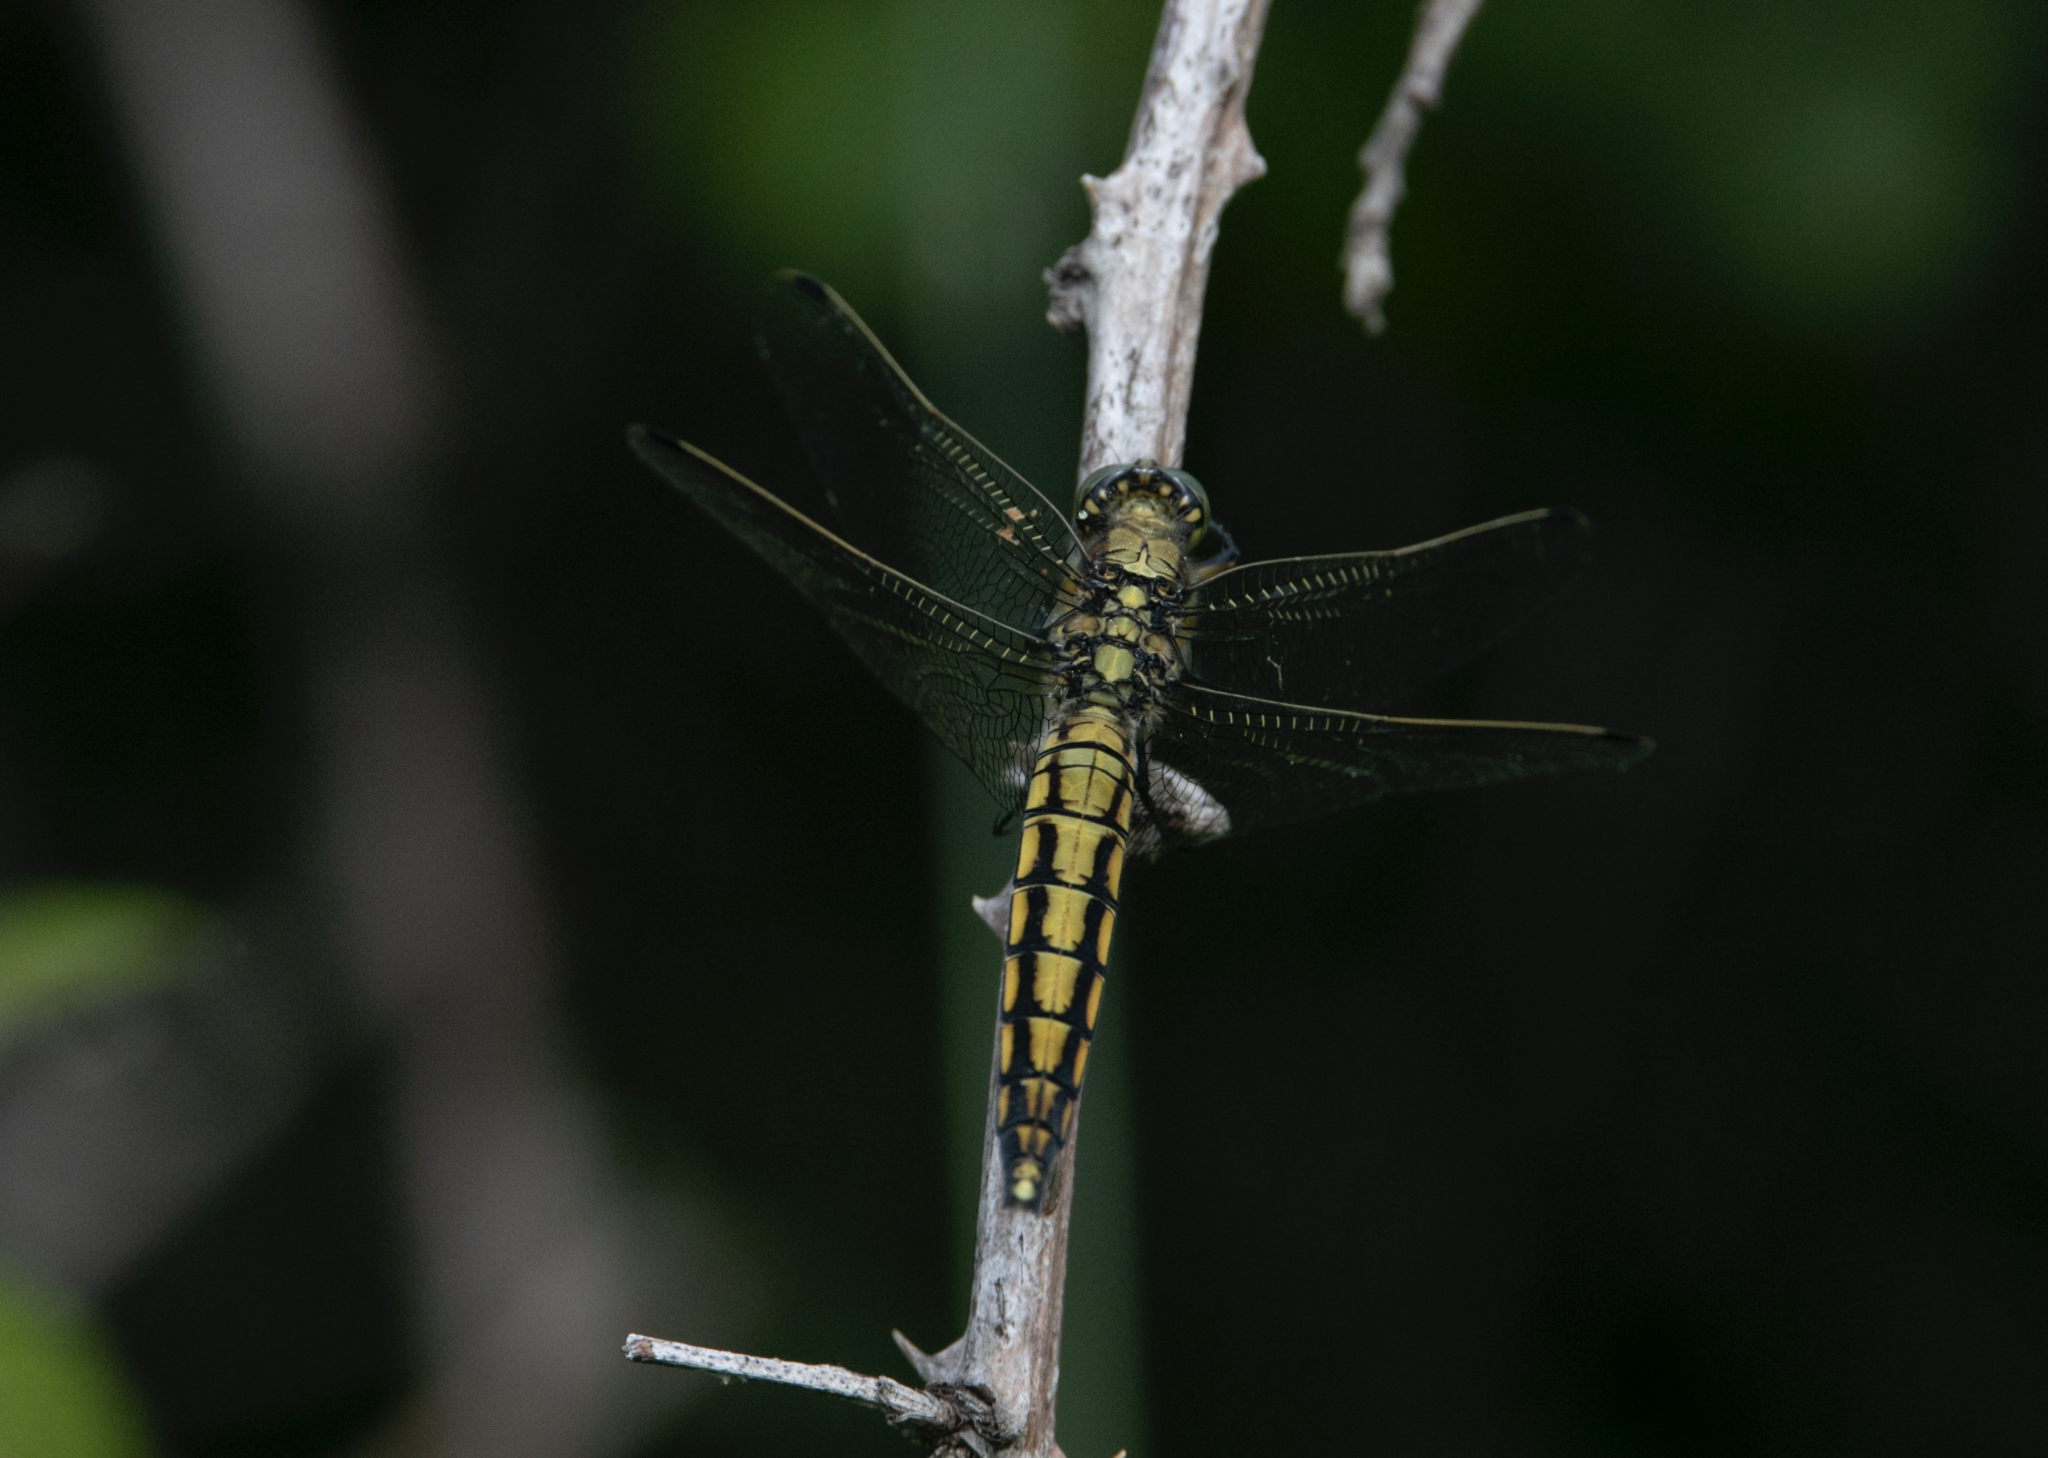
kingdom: Animalia
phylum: Arthropoda
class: Insecta
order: Odonata
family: Libellulidae
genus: Orthetrum
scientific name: Orthetrum cancellatum
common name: Black-tailed skimmer
